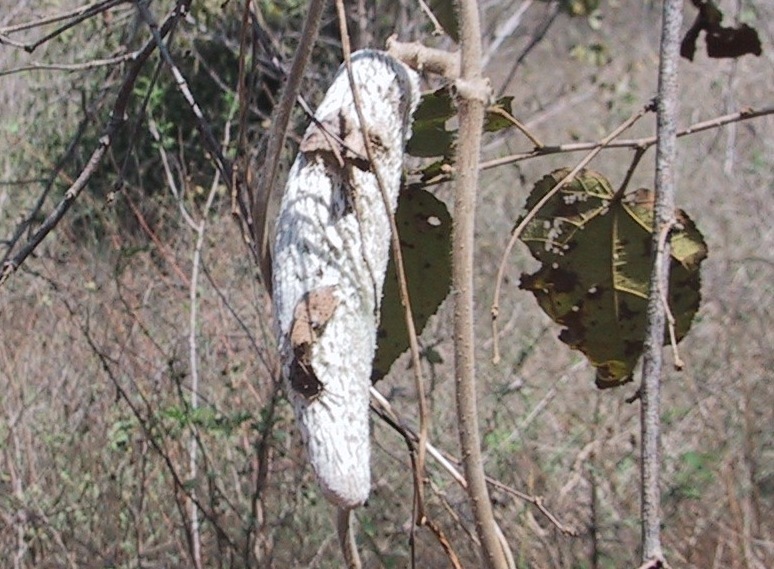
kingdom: Plantae
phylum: Tracheophyta
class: Magnoliopsida
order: Gentianales
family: Apocynaceae
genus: Ruehssia
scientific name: Ruehssia lanata
